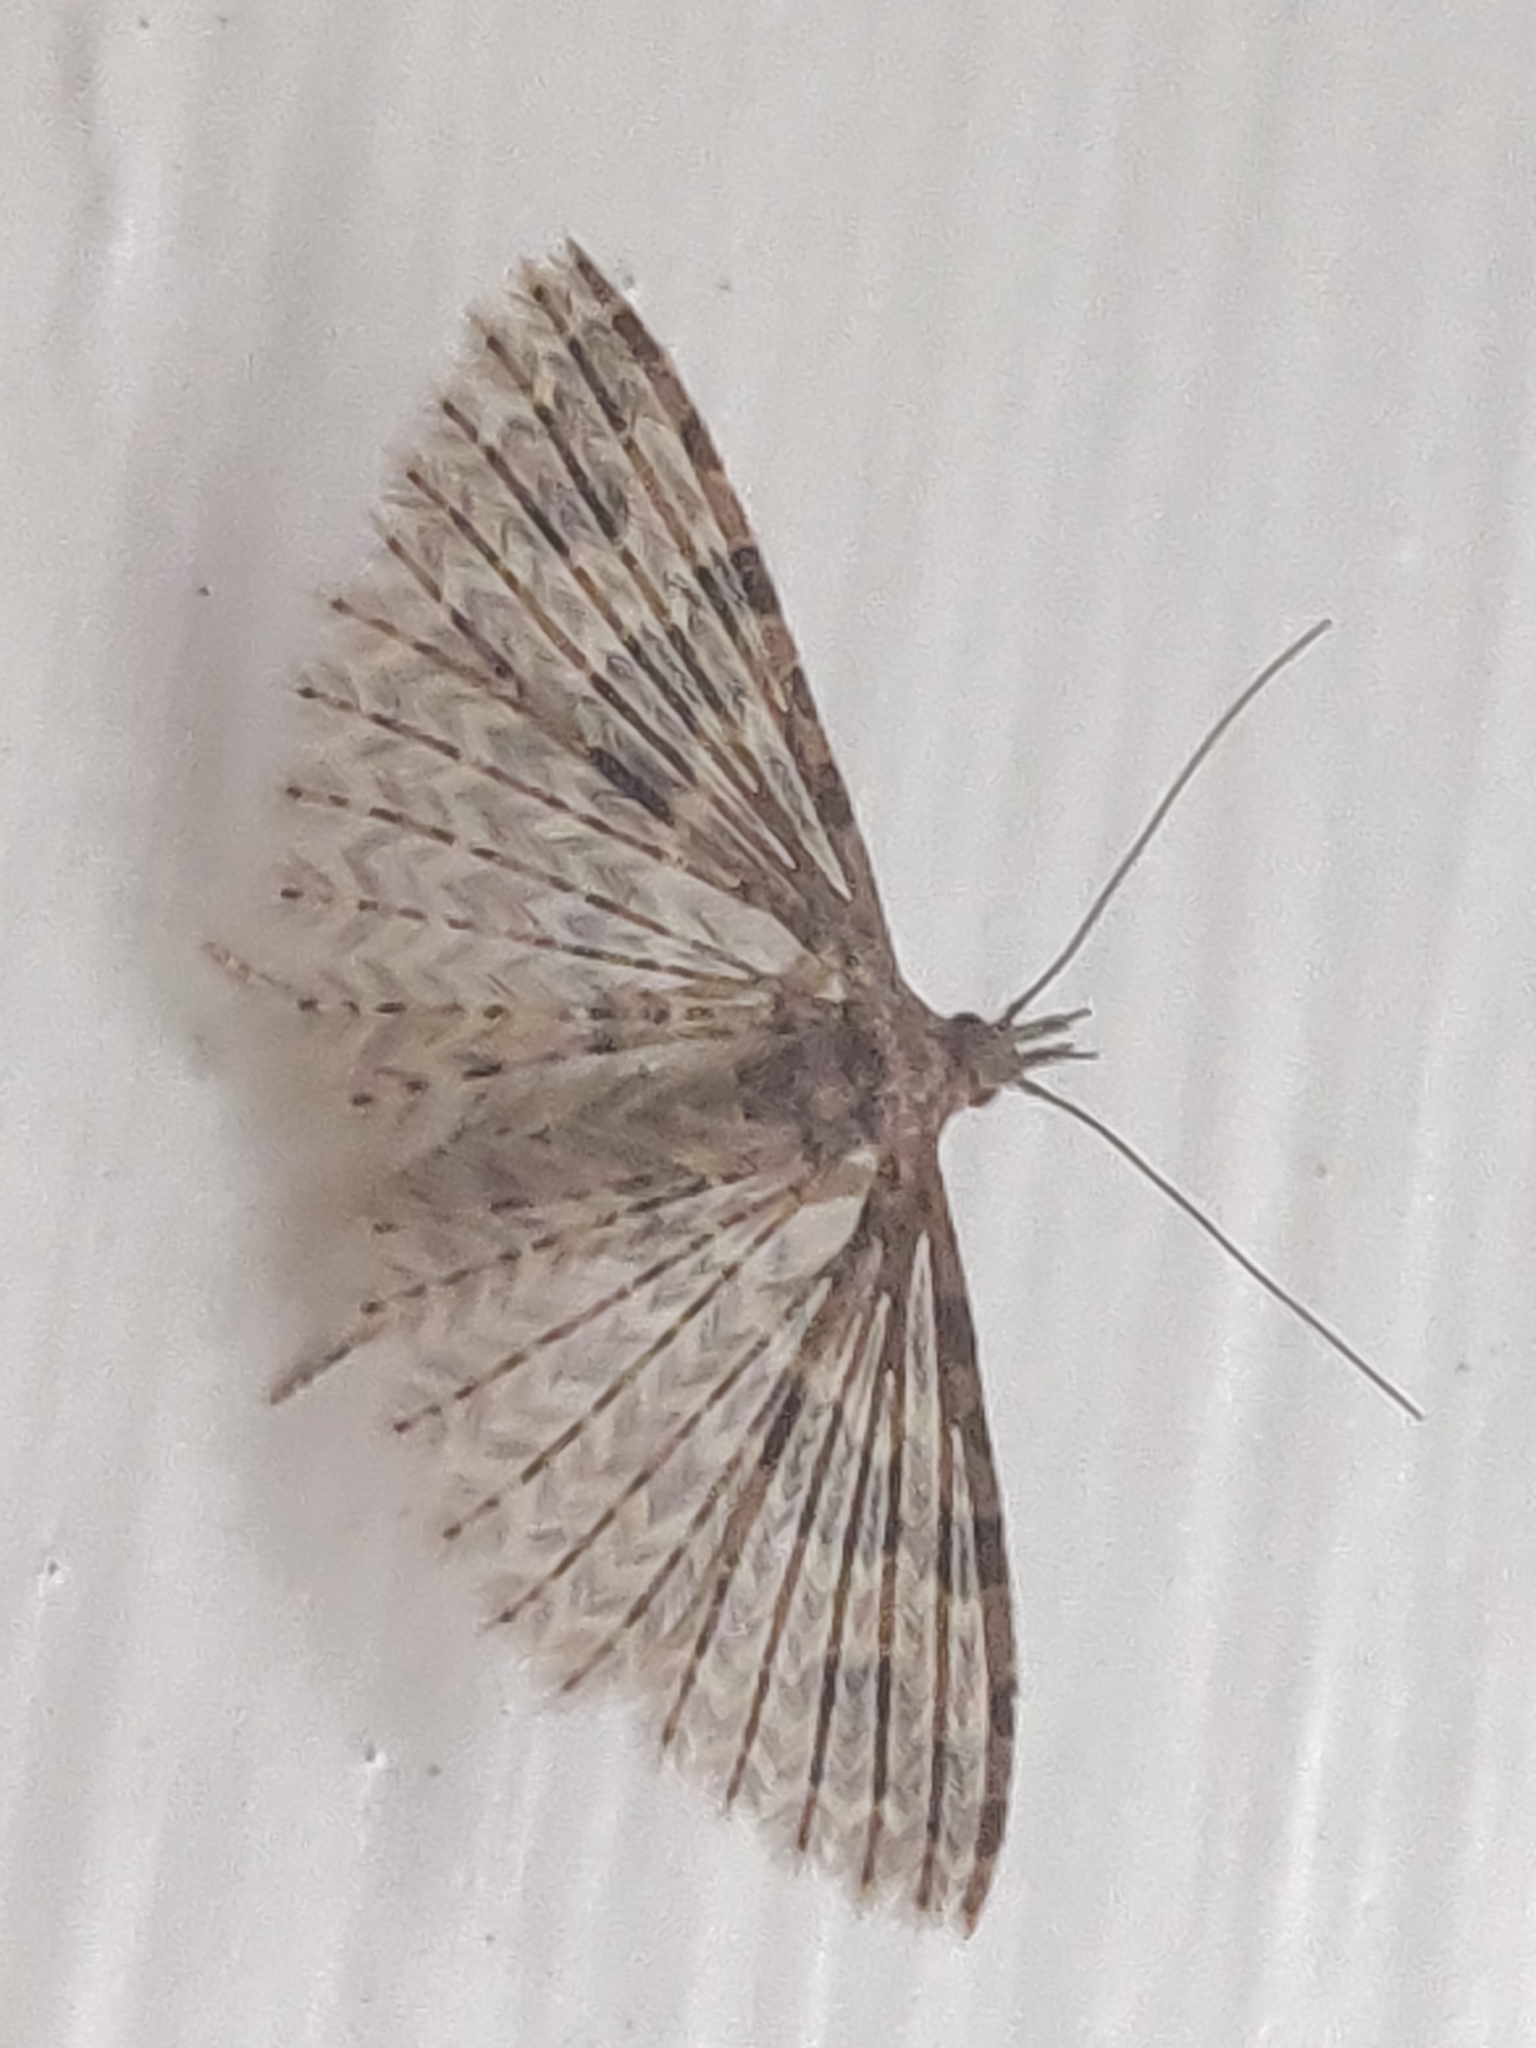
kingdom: Animalia
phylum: Arthropoda
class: Insecta
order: Lepidoptera
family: Alucitidae
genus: Alucita
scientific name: Alucita hexadactyla
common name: Twenty-plume moth
